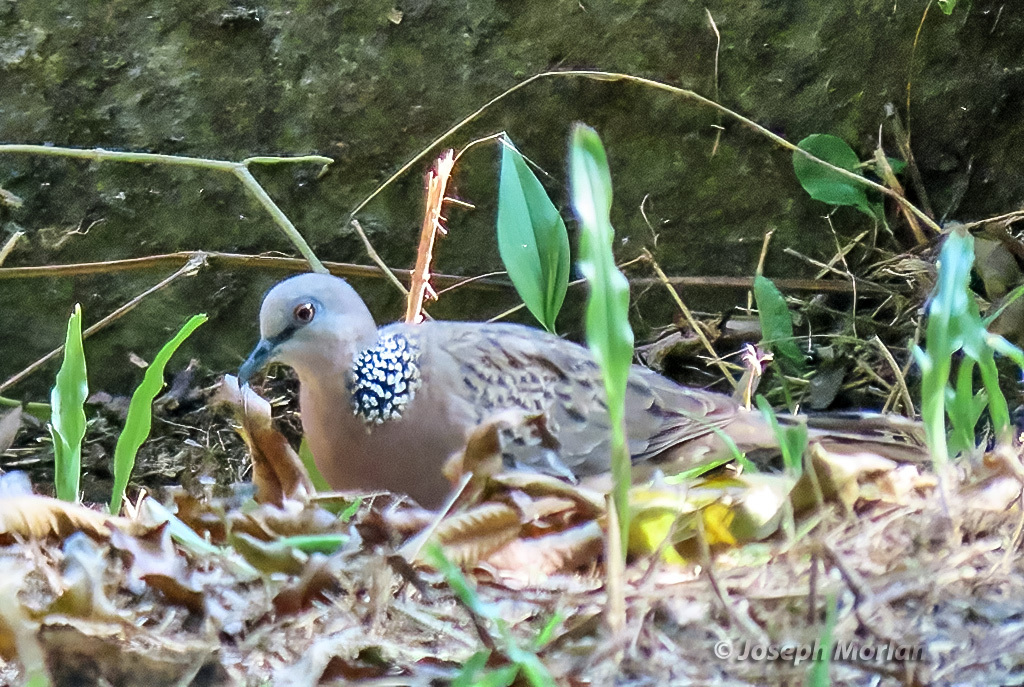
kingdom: Animalia
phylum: Chordata
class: Aves
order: Columbiformes
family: Columbidae
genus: Spilopelia
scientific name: Spilopelia chinensis
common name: Spotted dove
